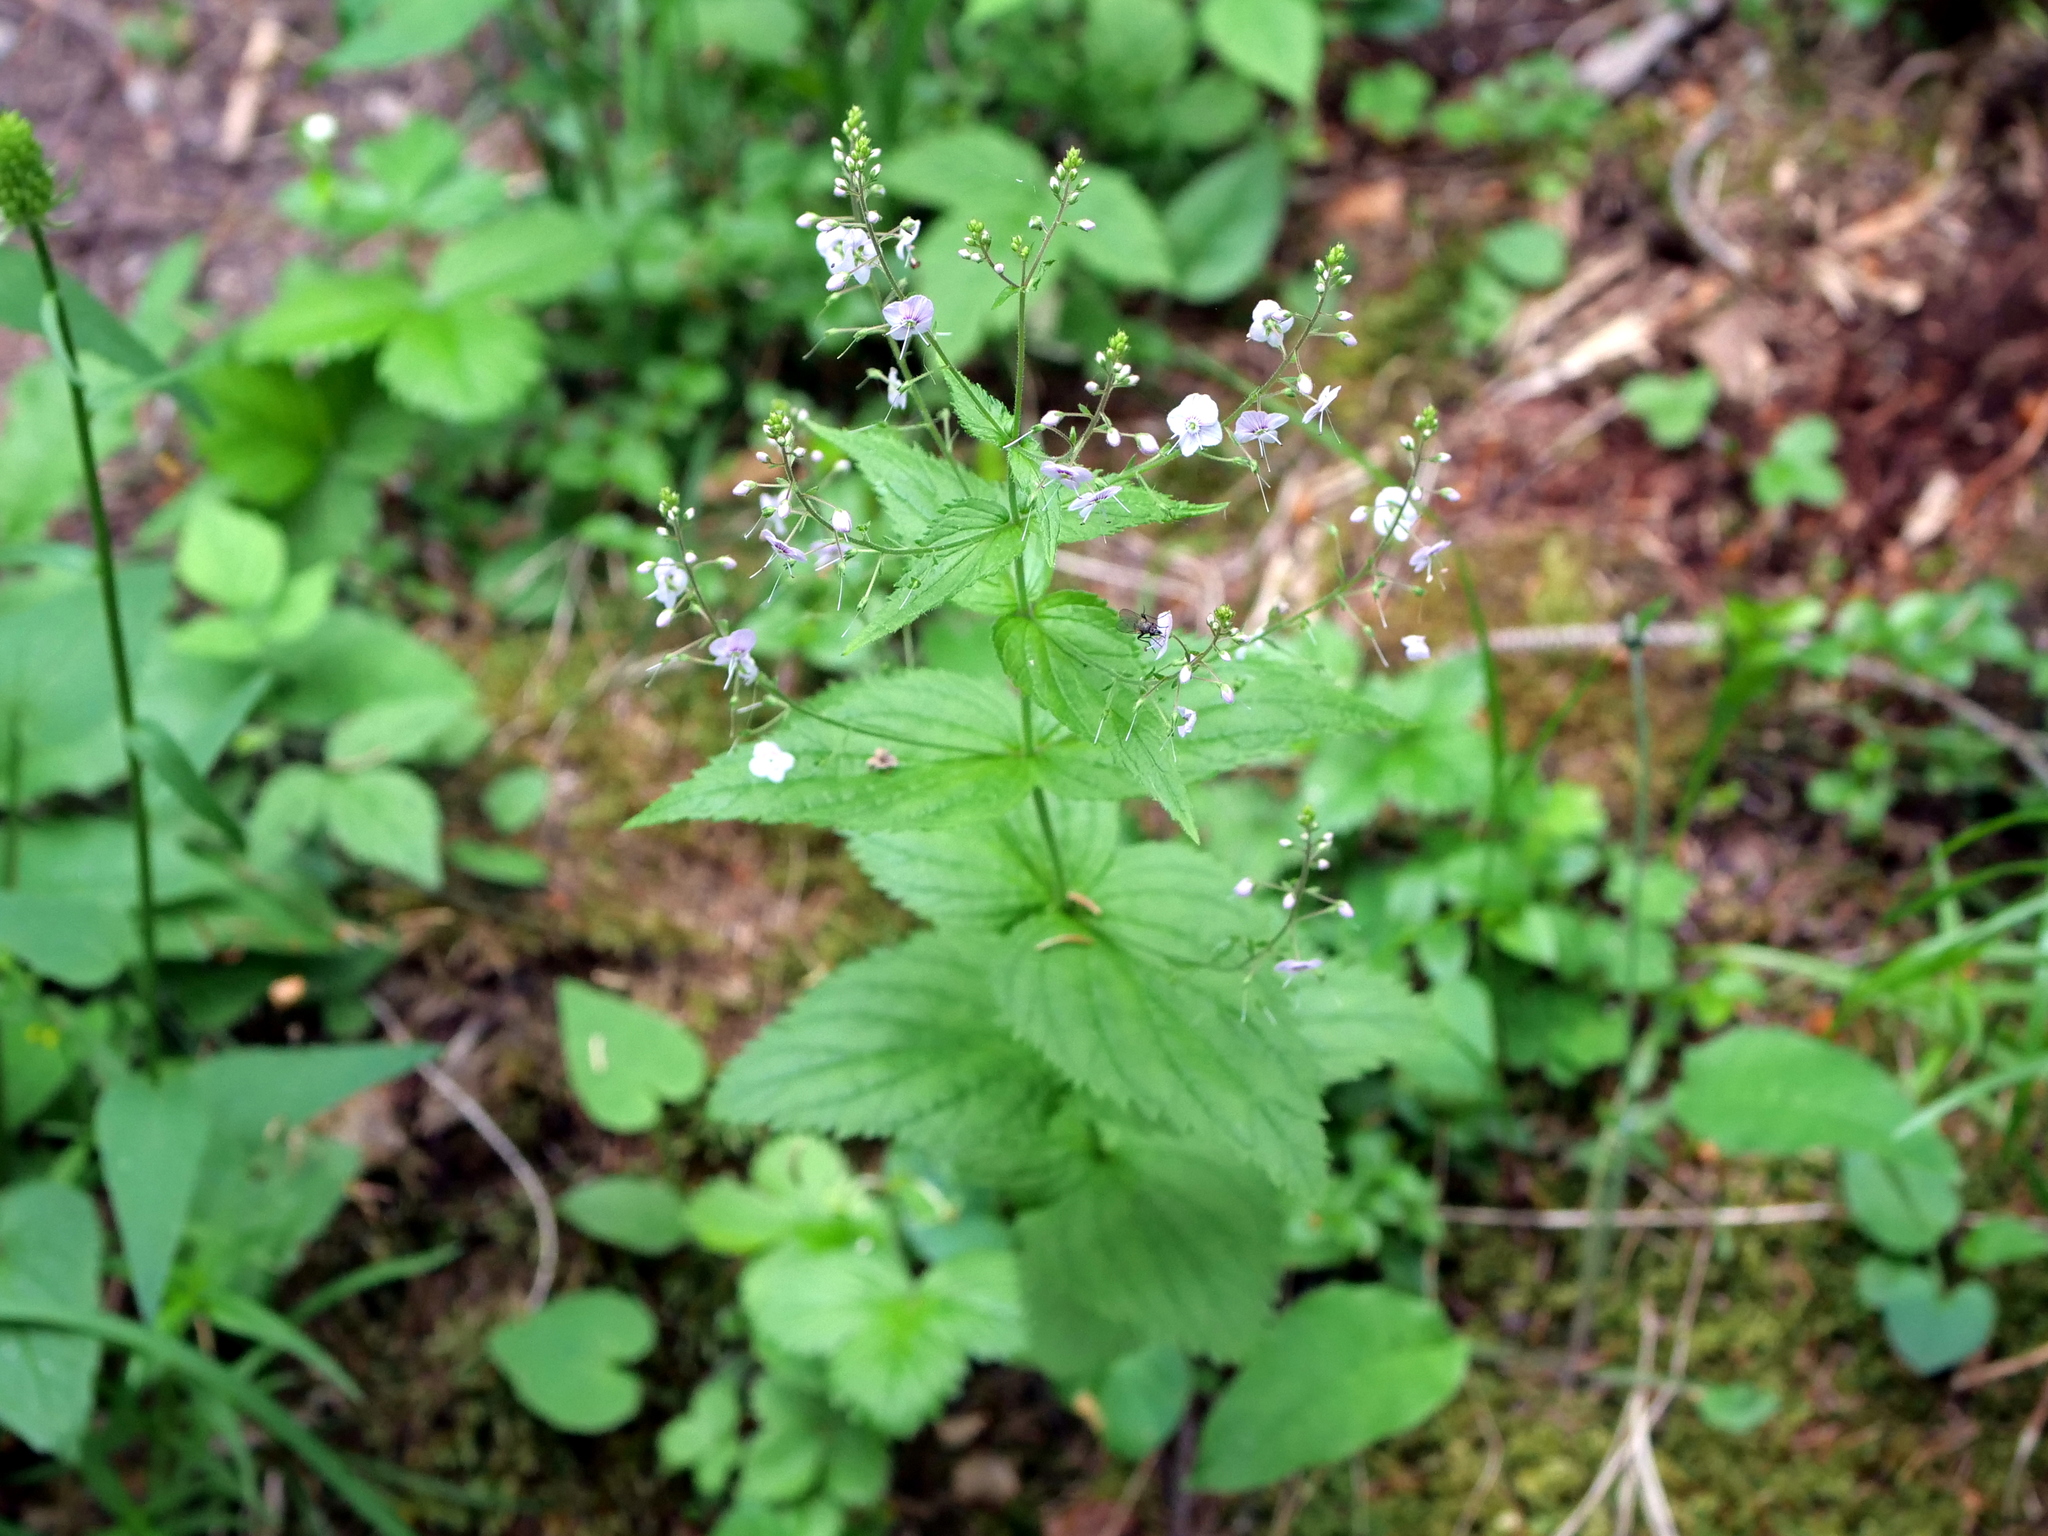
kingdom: Plantae
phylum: Tracheophyta
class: Magnoliopsida
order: Lamiales
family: Plantaginaceae
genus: Veronica
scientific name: Veronica urticifolia
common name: Nettle-leaf speedwell
